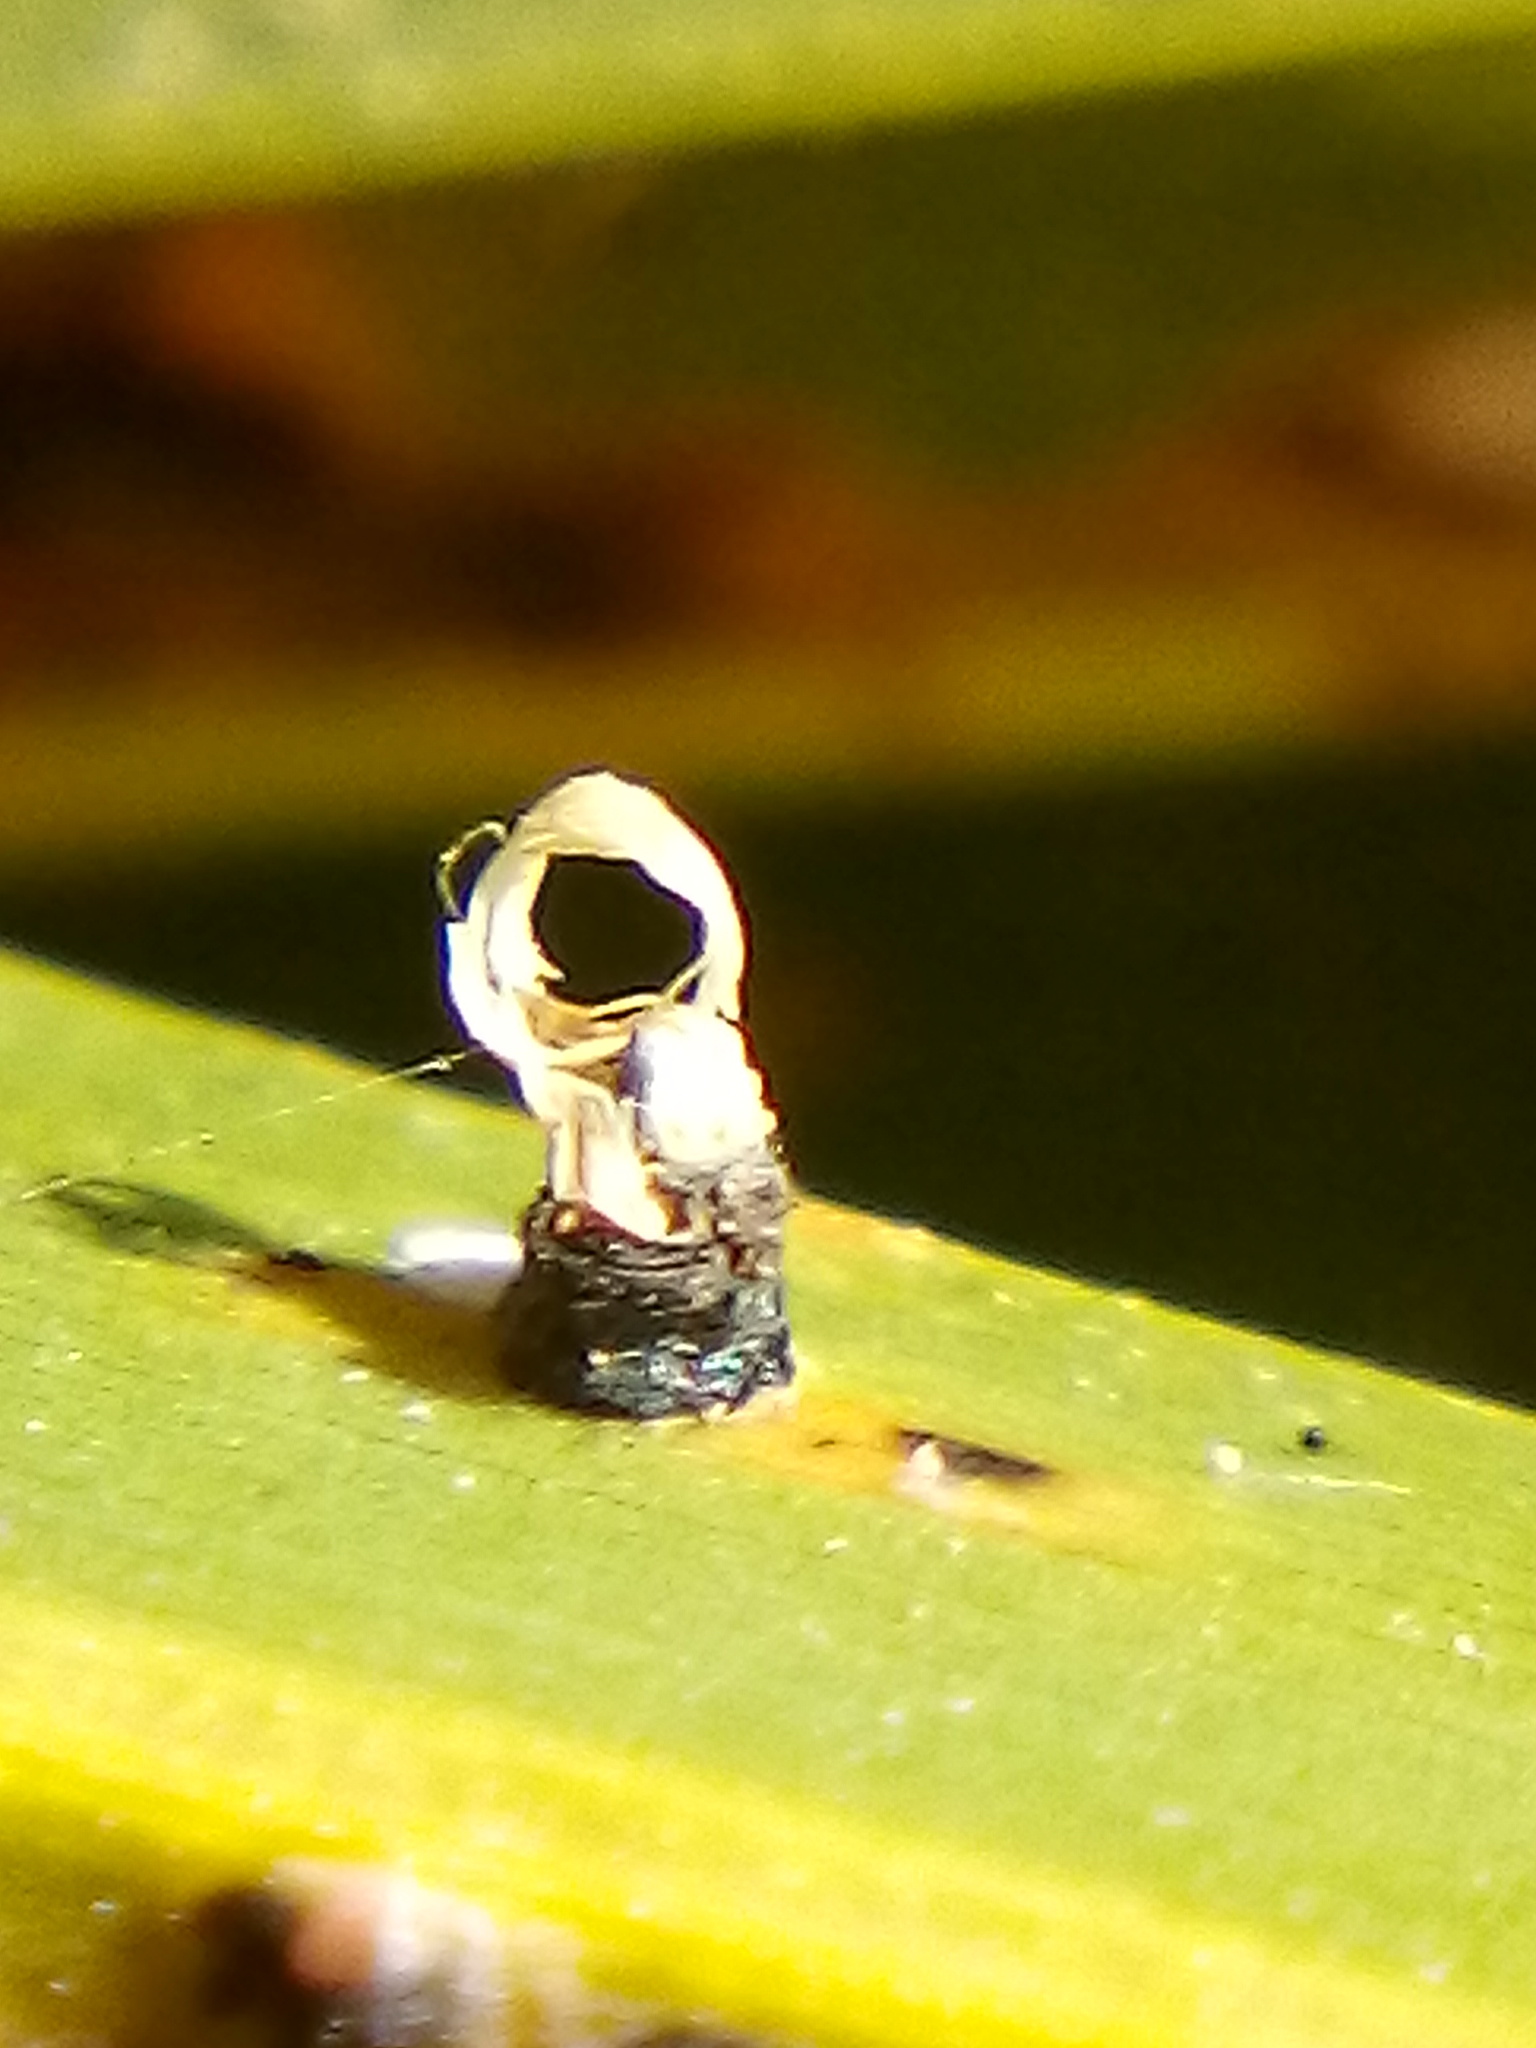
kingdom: Fungi
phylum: Basidiomycota
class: Exobasidiomycetes
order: Exobasidiales
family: Graphiolaceae
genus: Graphiola
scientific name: Graphiola phoenicis
